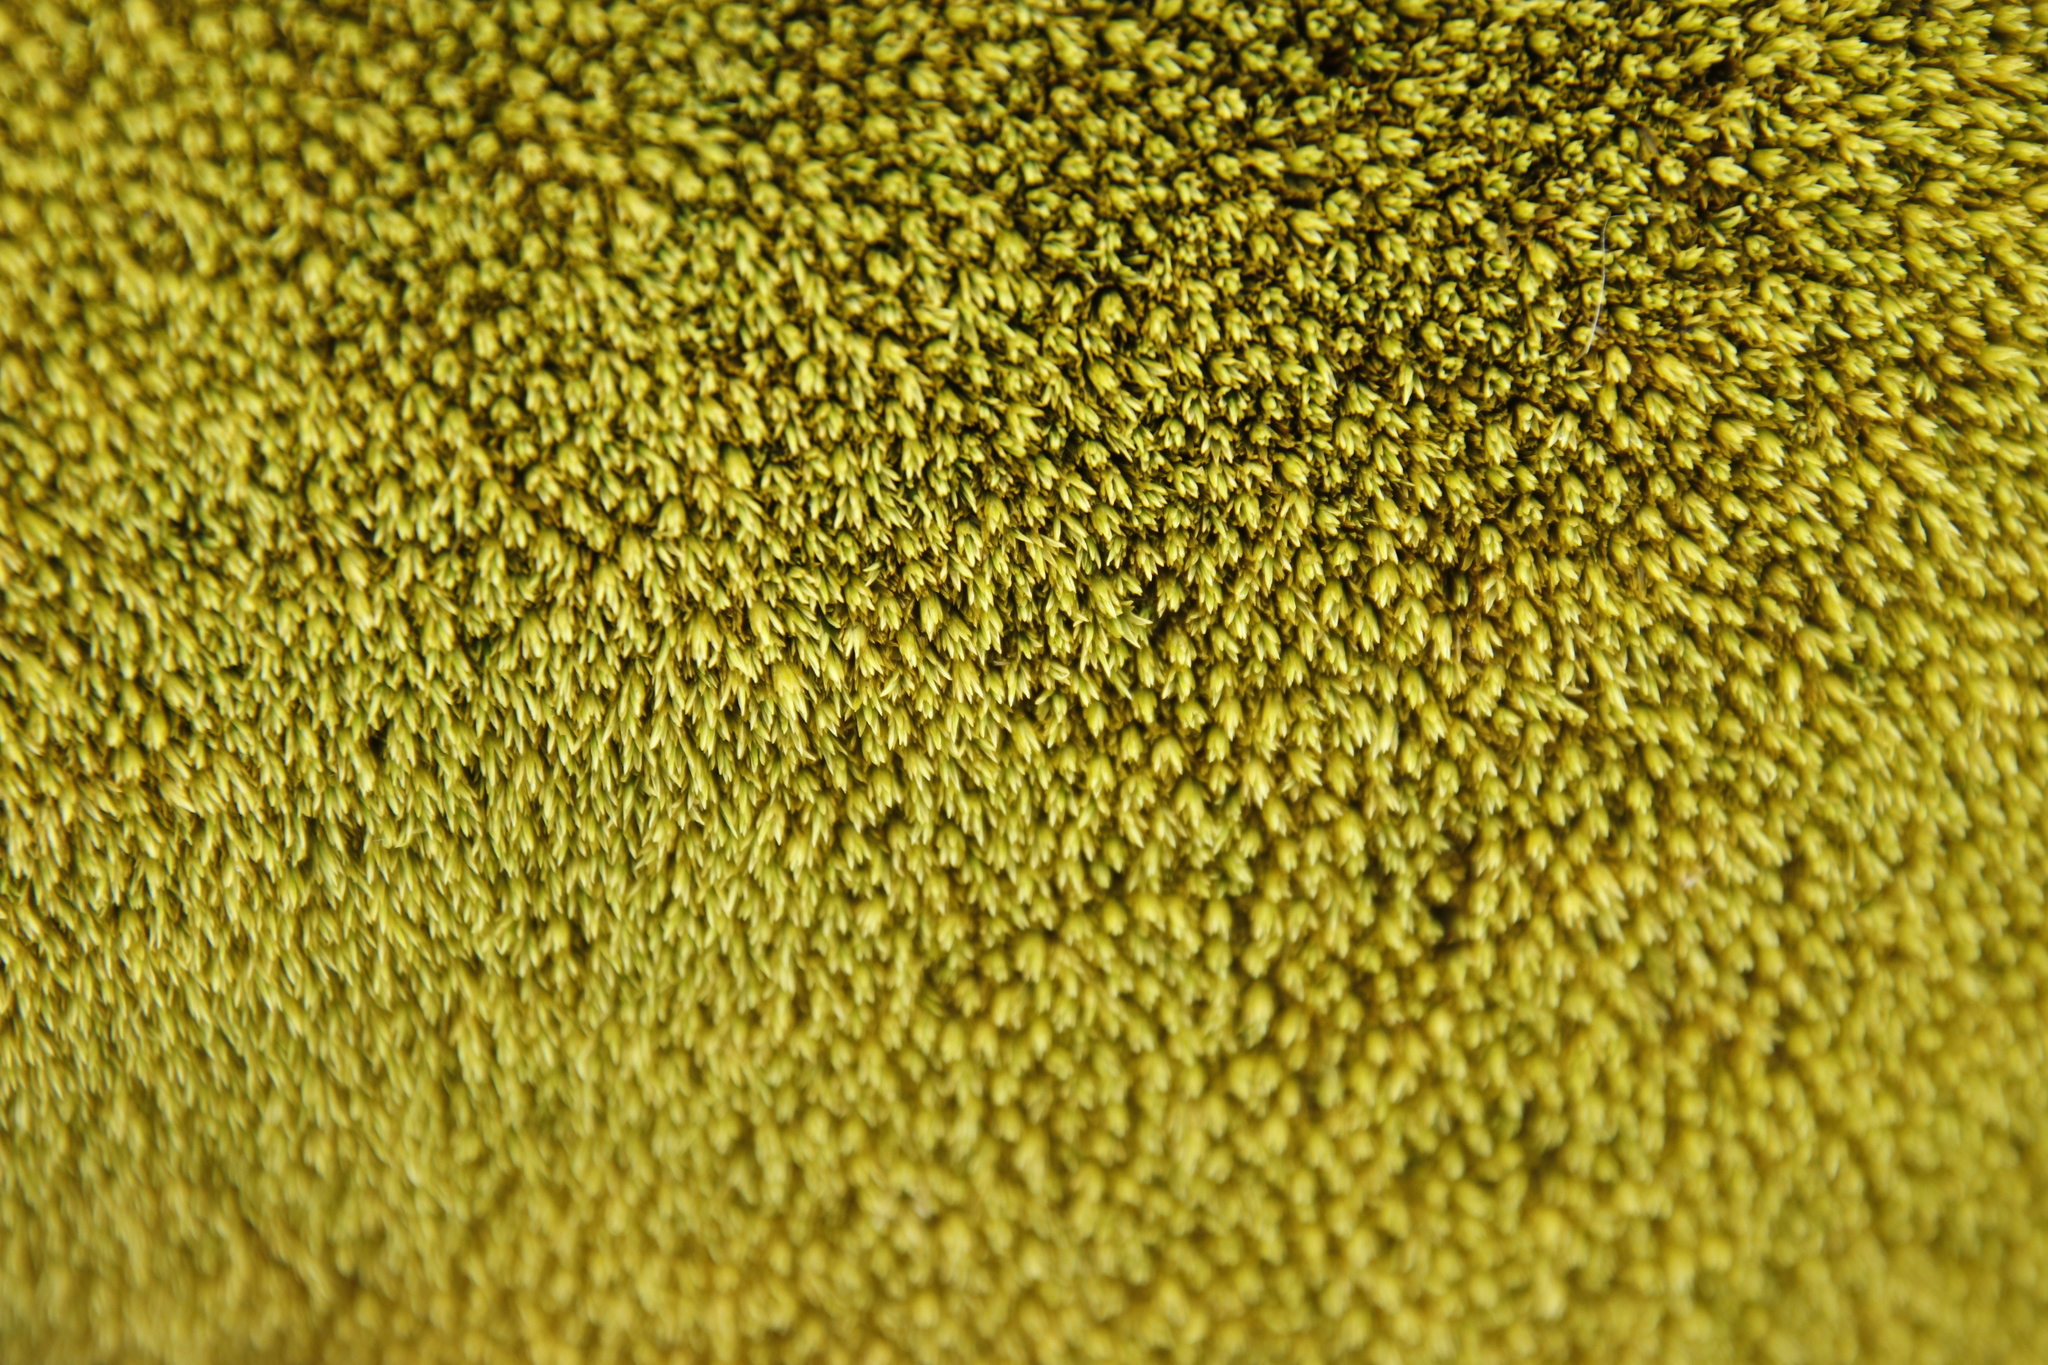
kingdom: Plantae
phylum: Bryophyta
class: Bryopsida
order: Dicranales
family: Hypodontiaceae
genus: Hypodontium
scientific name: Hypodontium pomiforme
